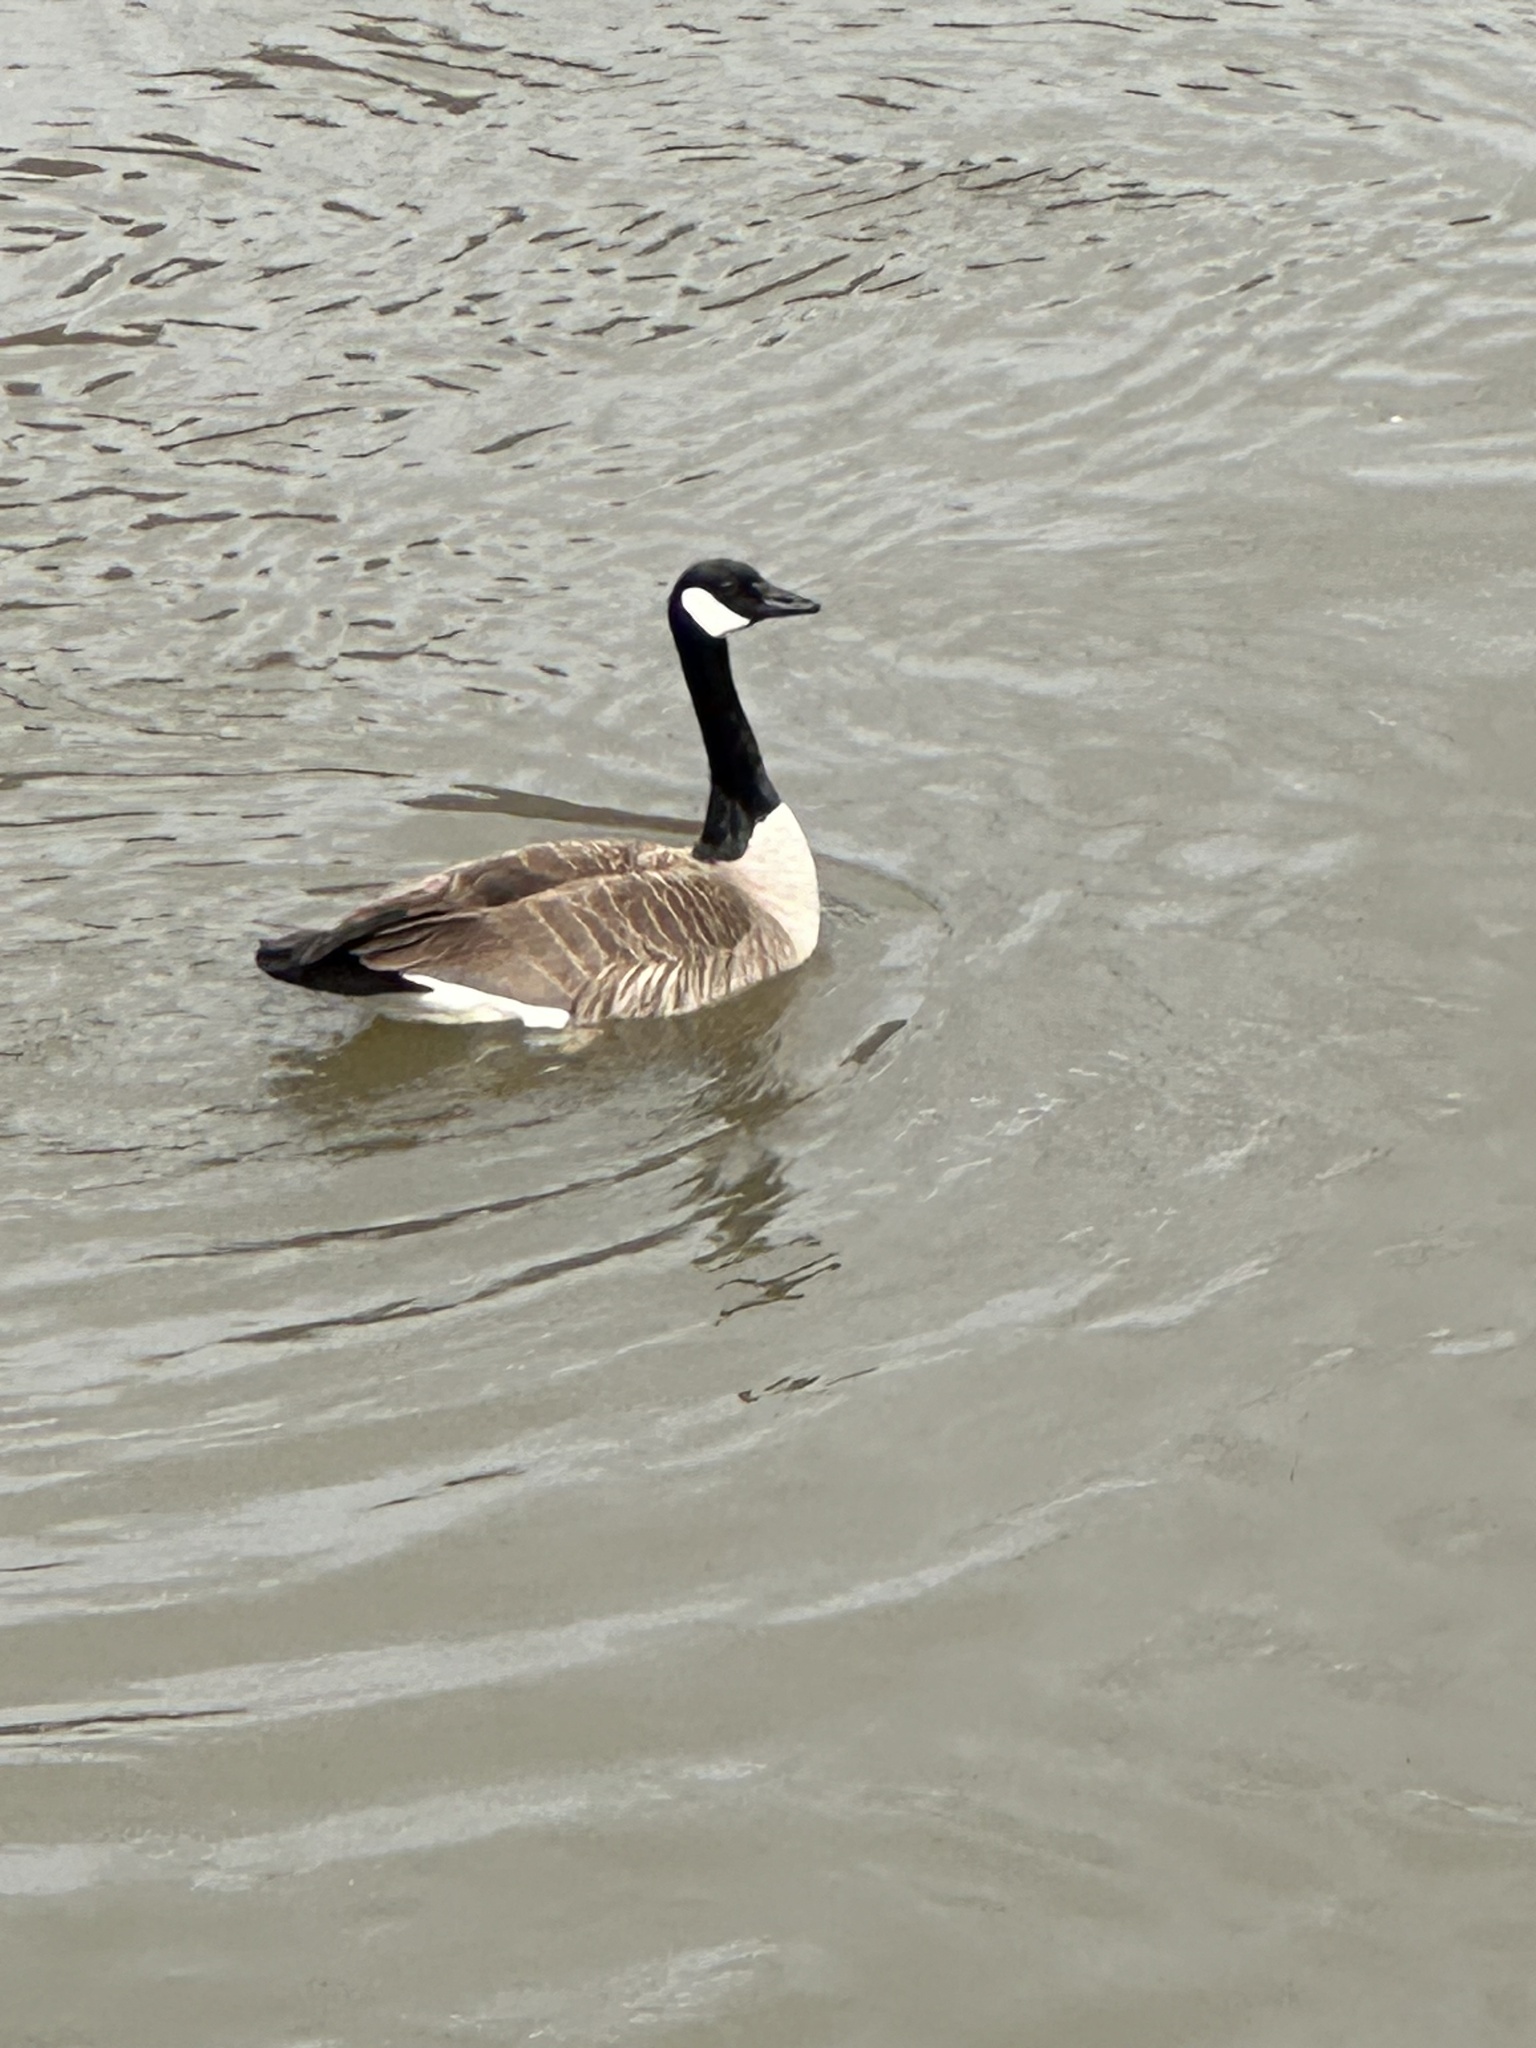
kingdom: Animalia
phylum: Chordata
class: Aves
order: Anseriformes
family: Anatidae
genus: Branta
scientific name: Branta canadensis
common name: Canada goose
